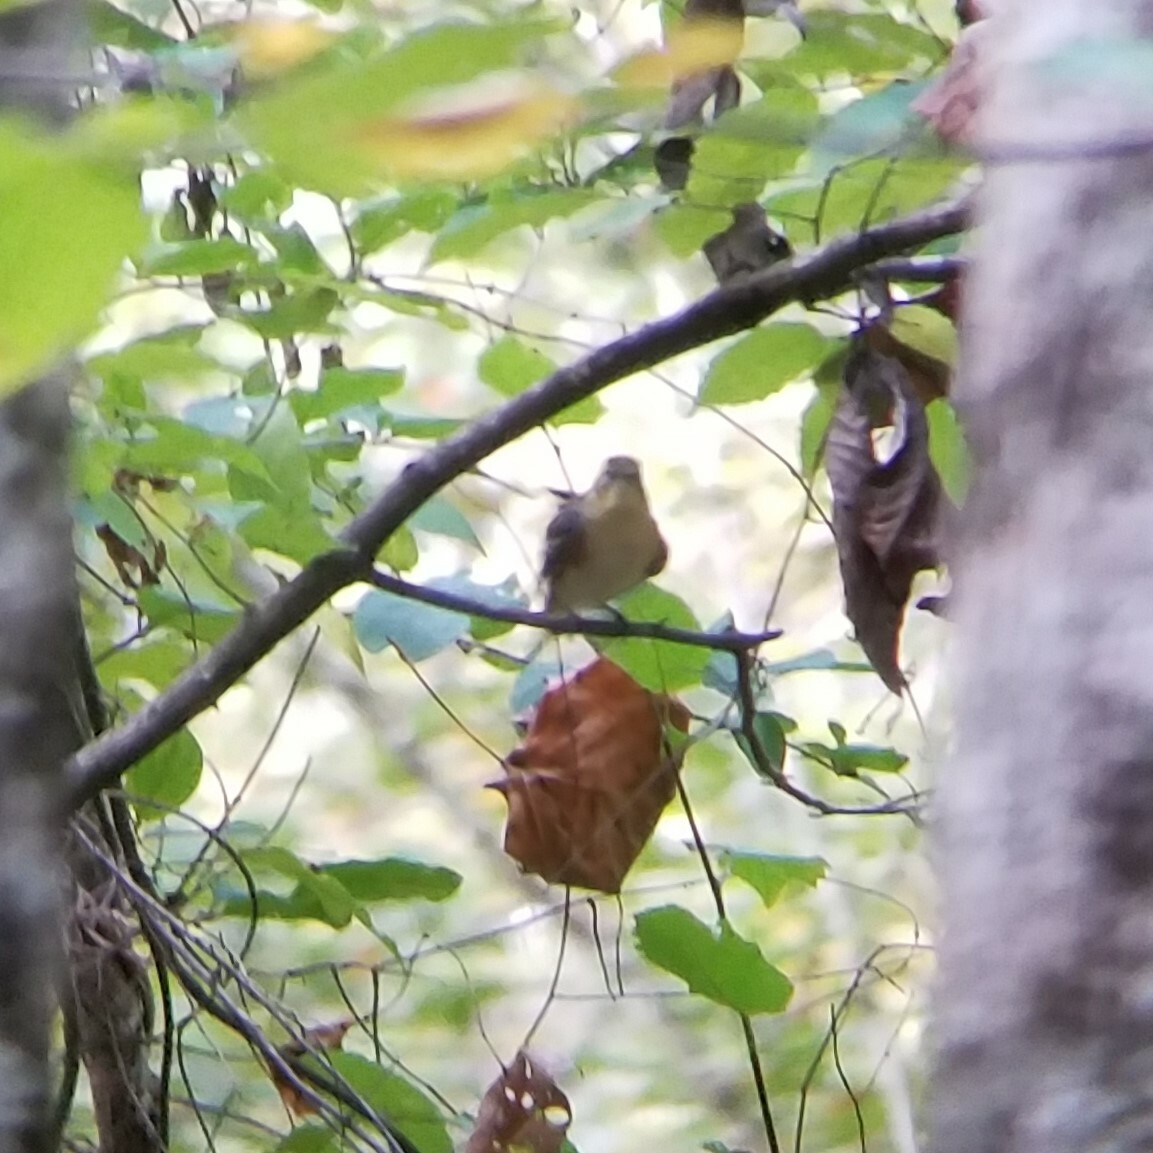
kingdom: Animalia
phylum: Chordata
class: Aves
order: Passeriformes
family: Parulidae
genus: Setophaga
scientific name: Setophaga castanea
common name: Bay-breasted warbler
